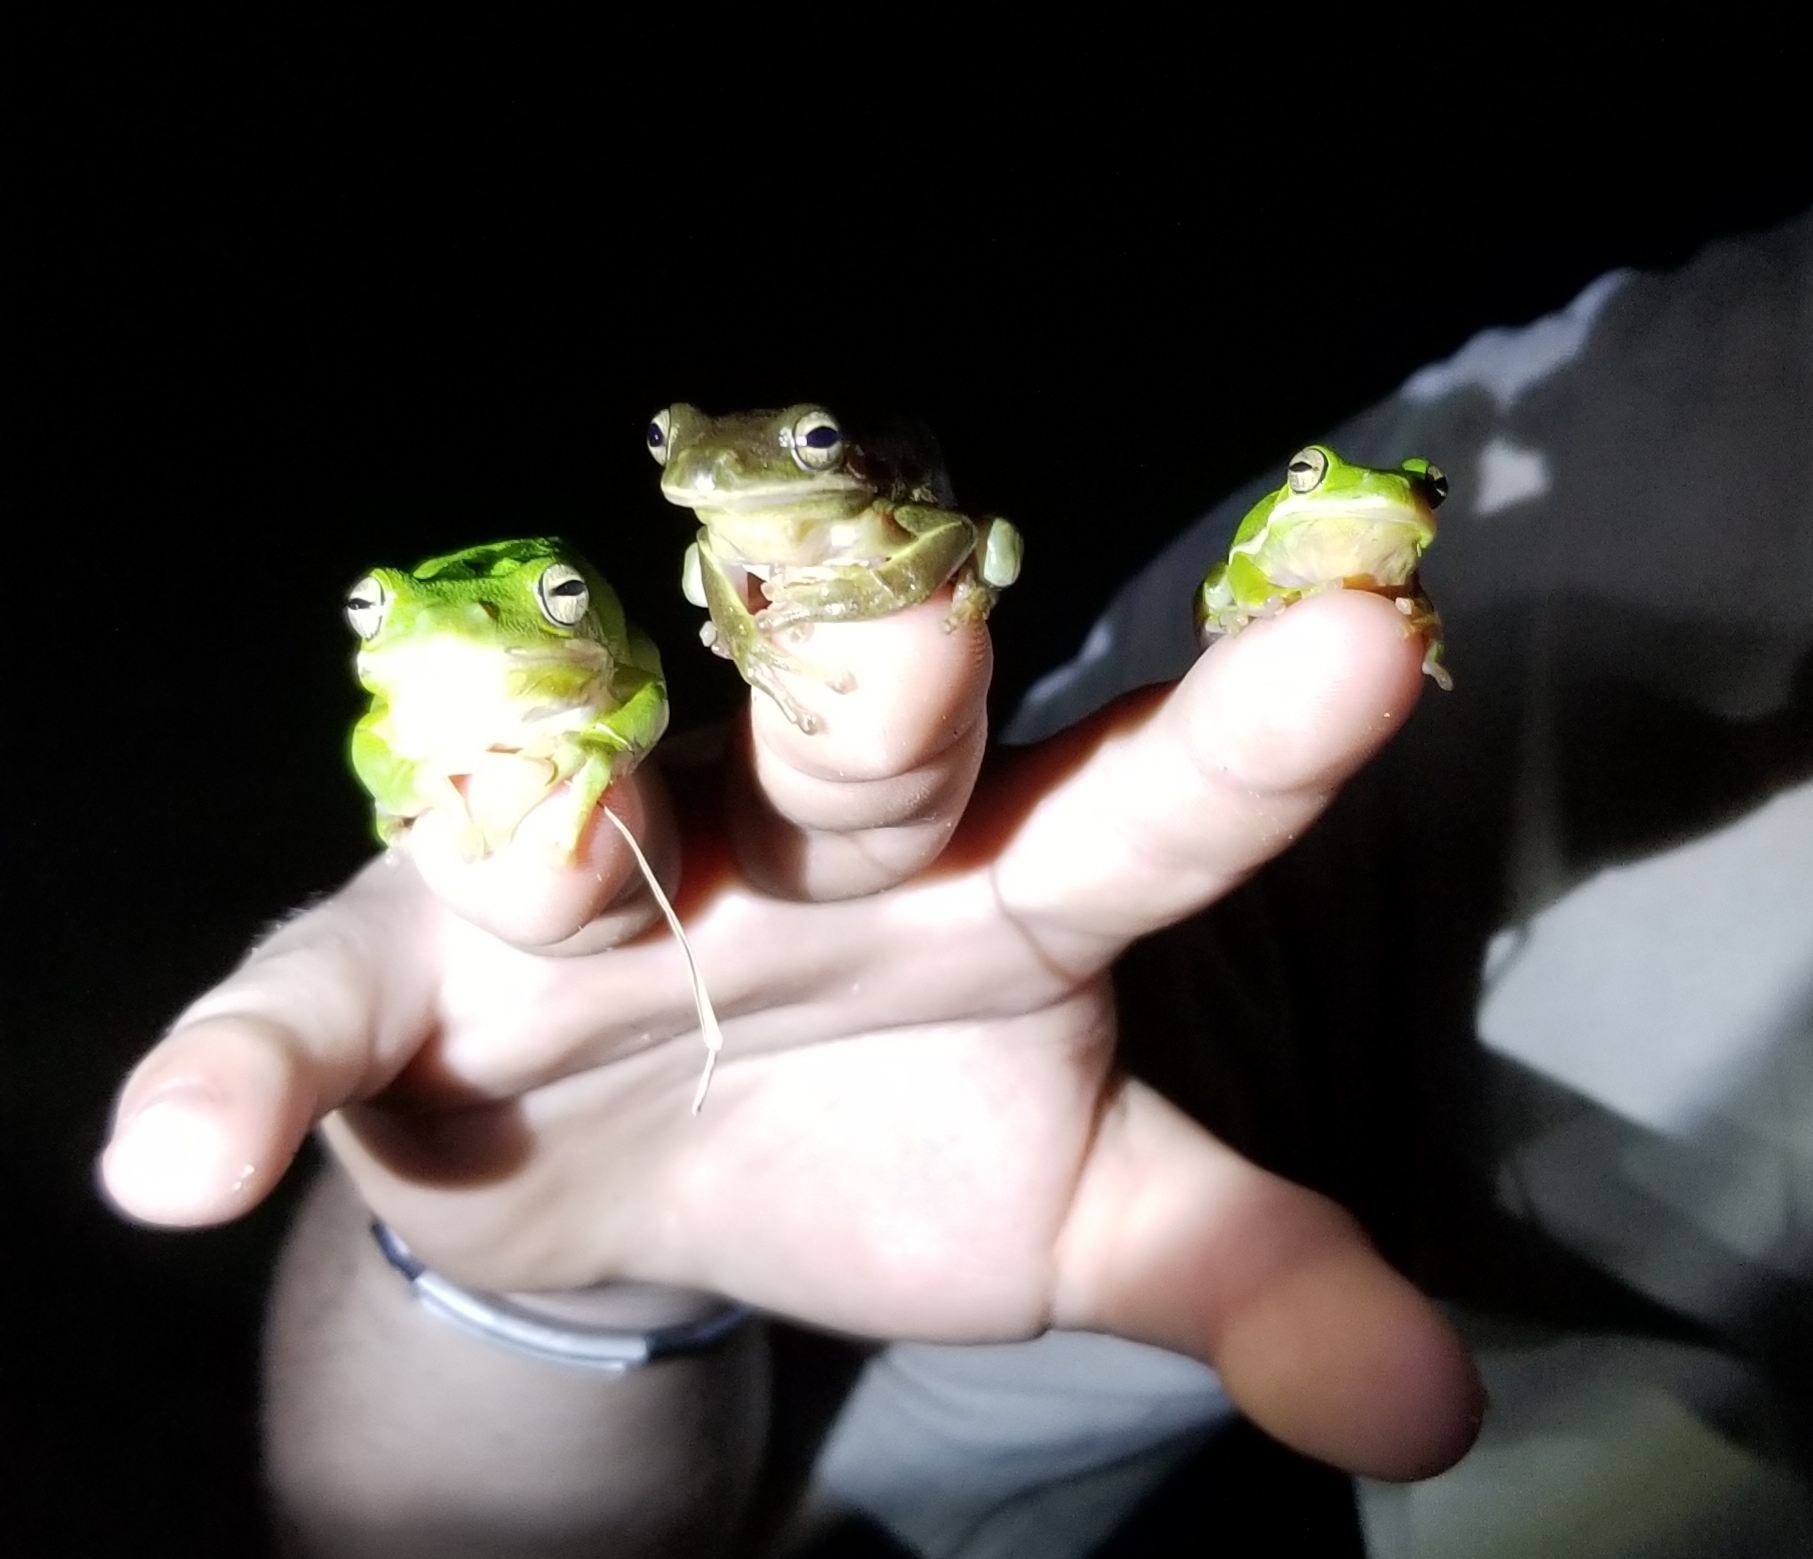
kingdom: Animalia
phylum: Chordata
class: Amphibia
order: Anura
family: Hylidae
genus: Dryophytes
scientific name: Dryophytes cinereus
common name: Green treefrog
